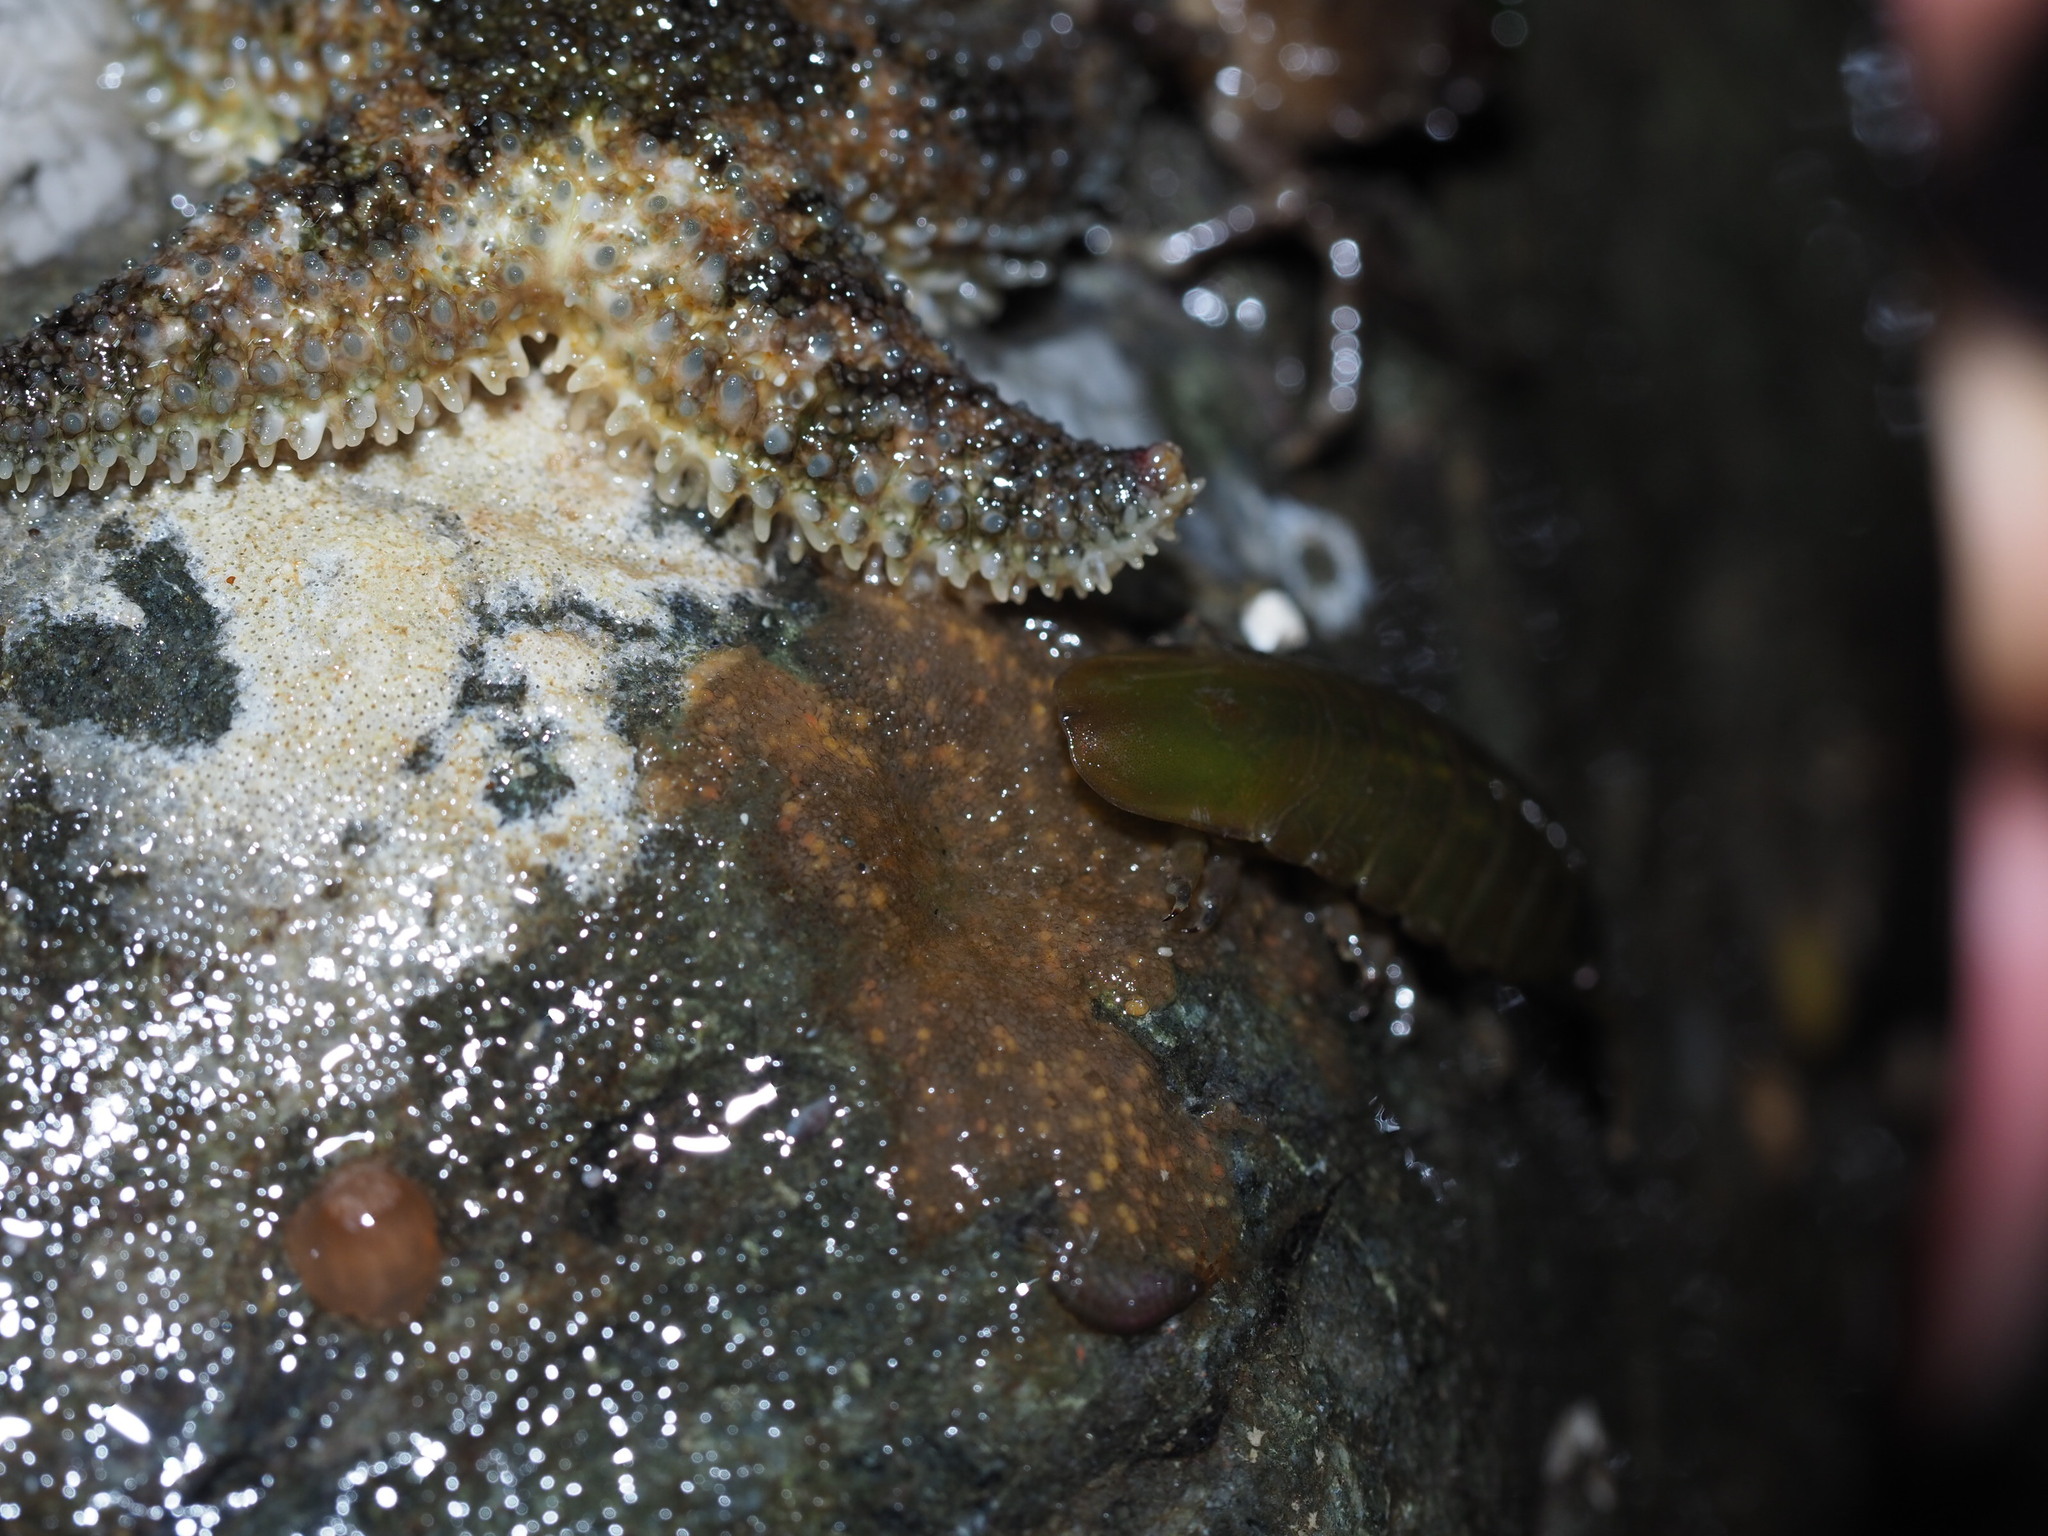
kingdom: Animalia
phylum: Arthropoda
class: Malacostraca
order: Isopoda
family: Idoteidae
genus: Pentidotea
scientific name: Pentidotea wosnesenskii
